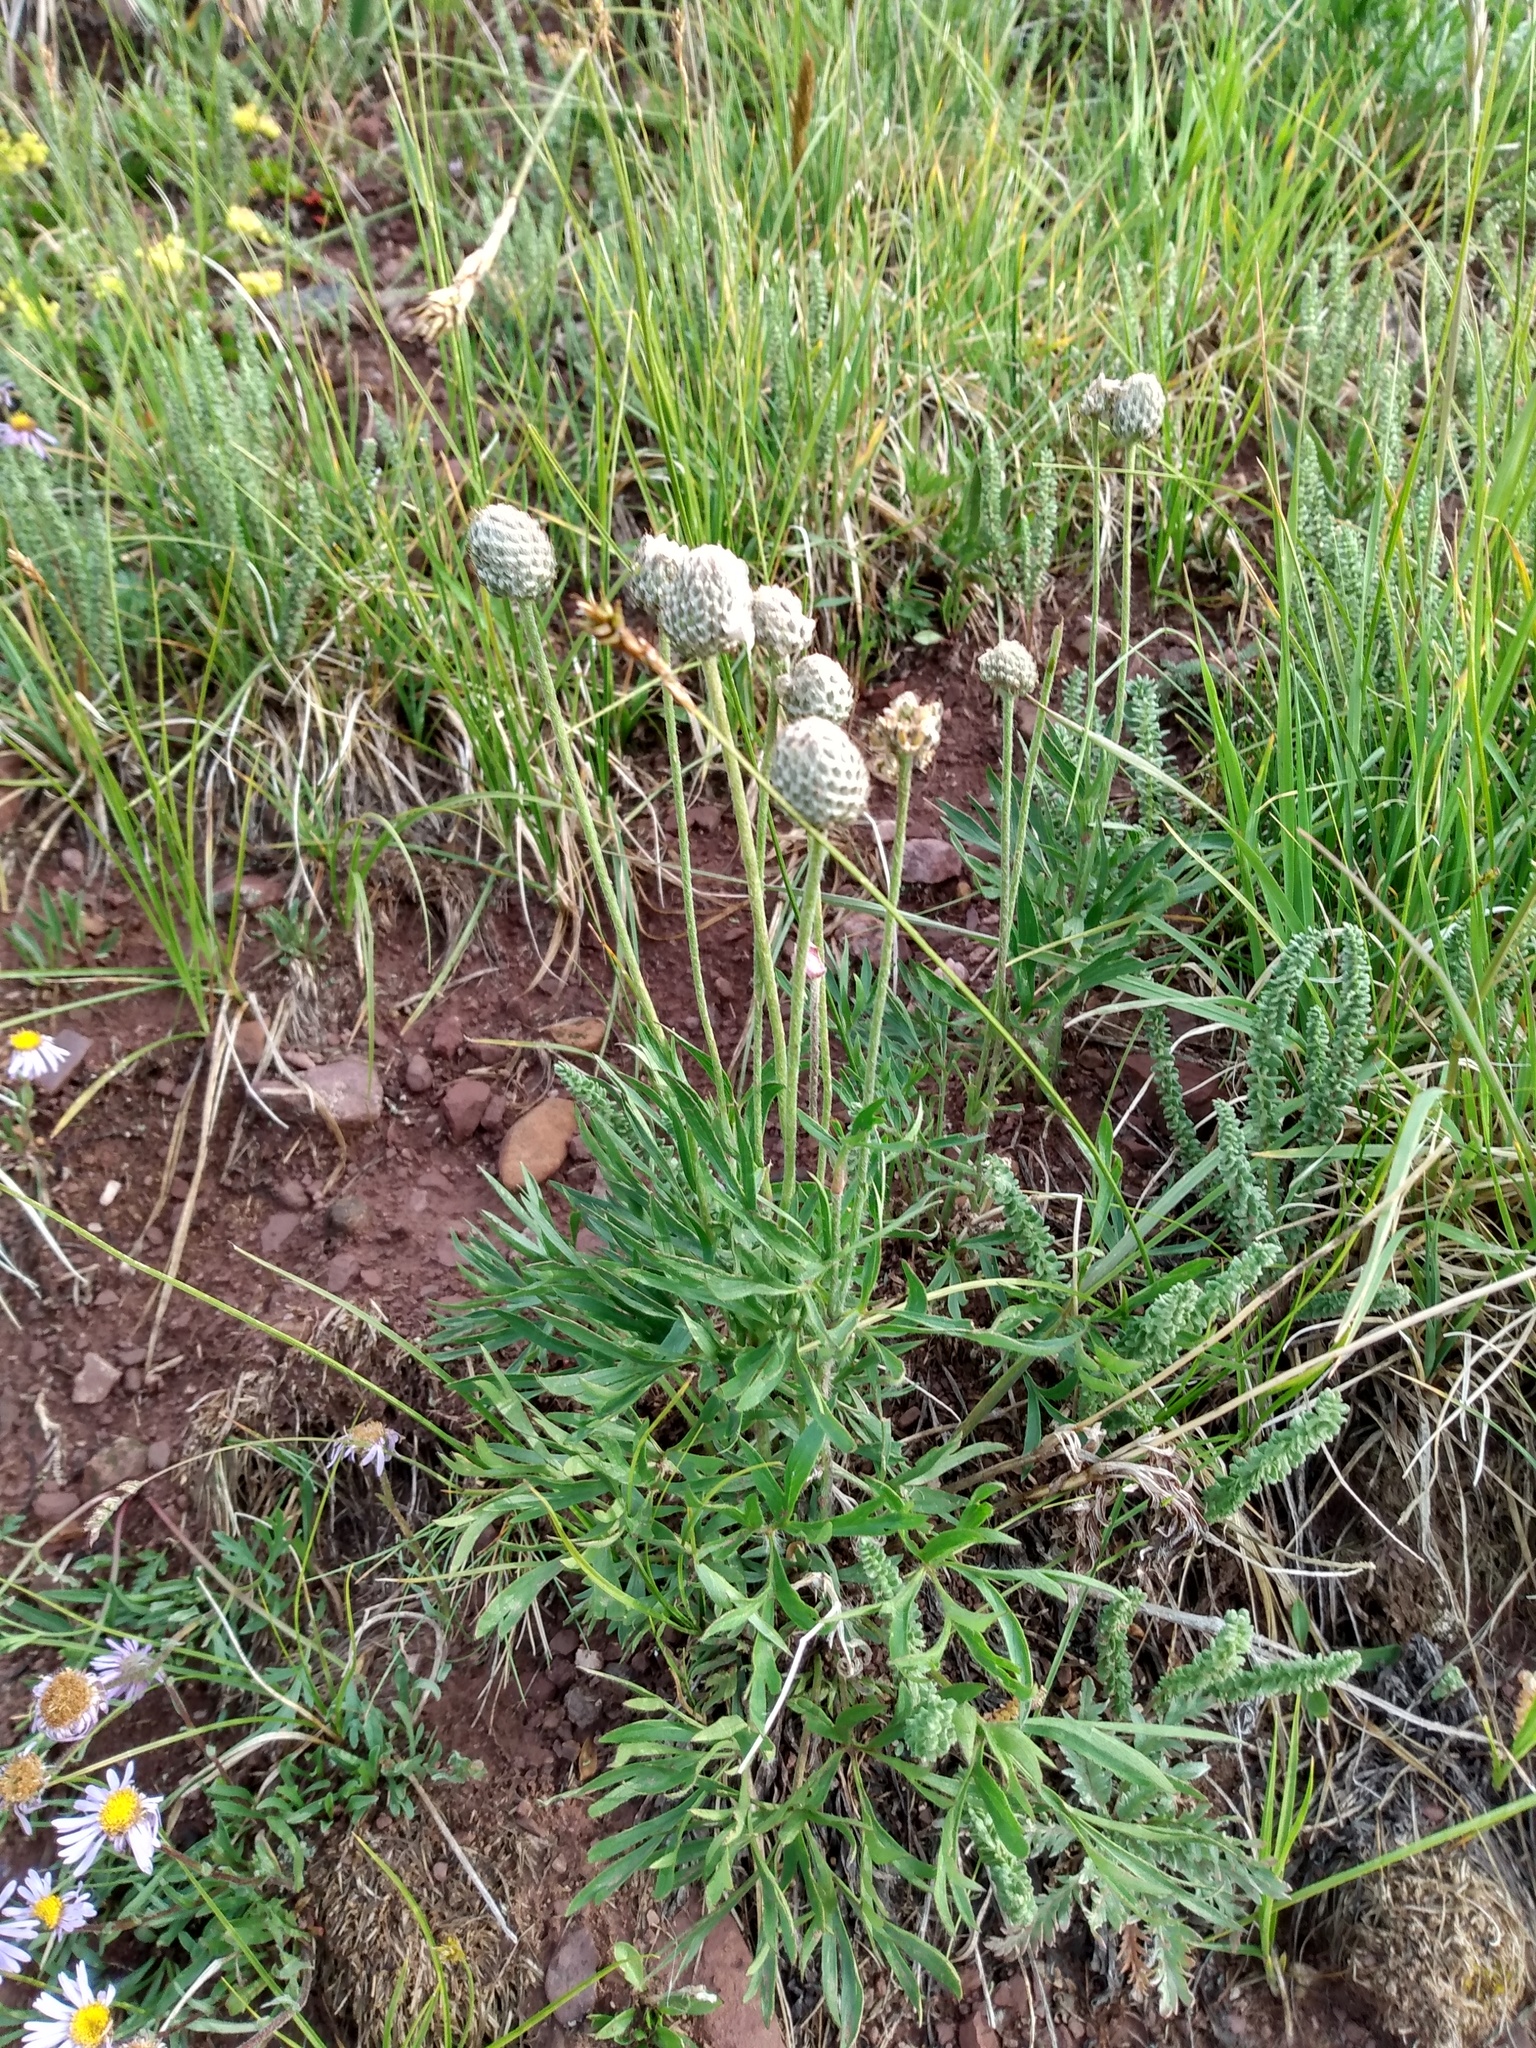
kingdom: Plantae
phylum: Tracheophyta
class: Magnoliopsida
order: Ranunculales
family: Ranunculaceae
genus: Anemone
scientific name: Anemone multifida
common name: Bird's-foot anemone
